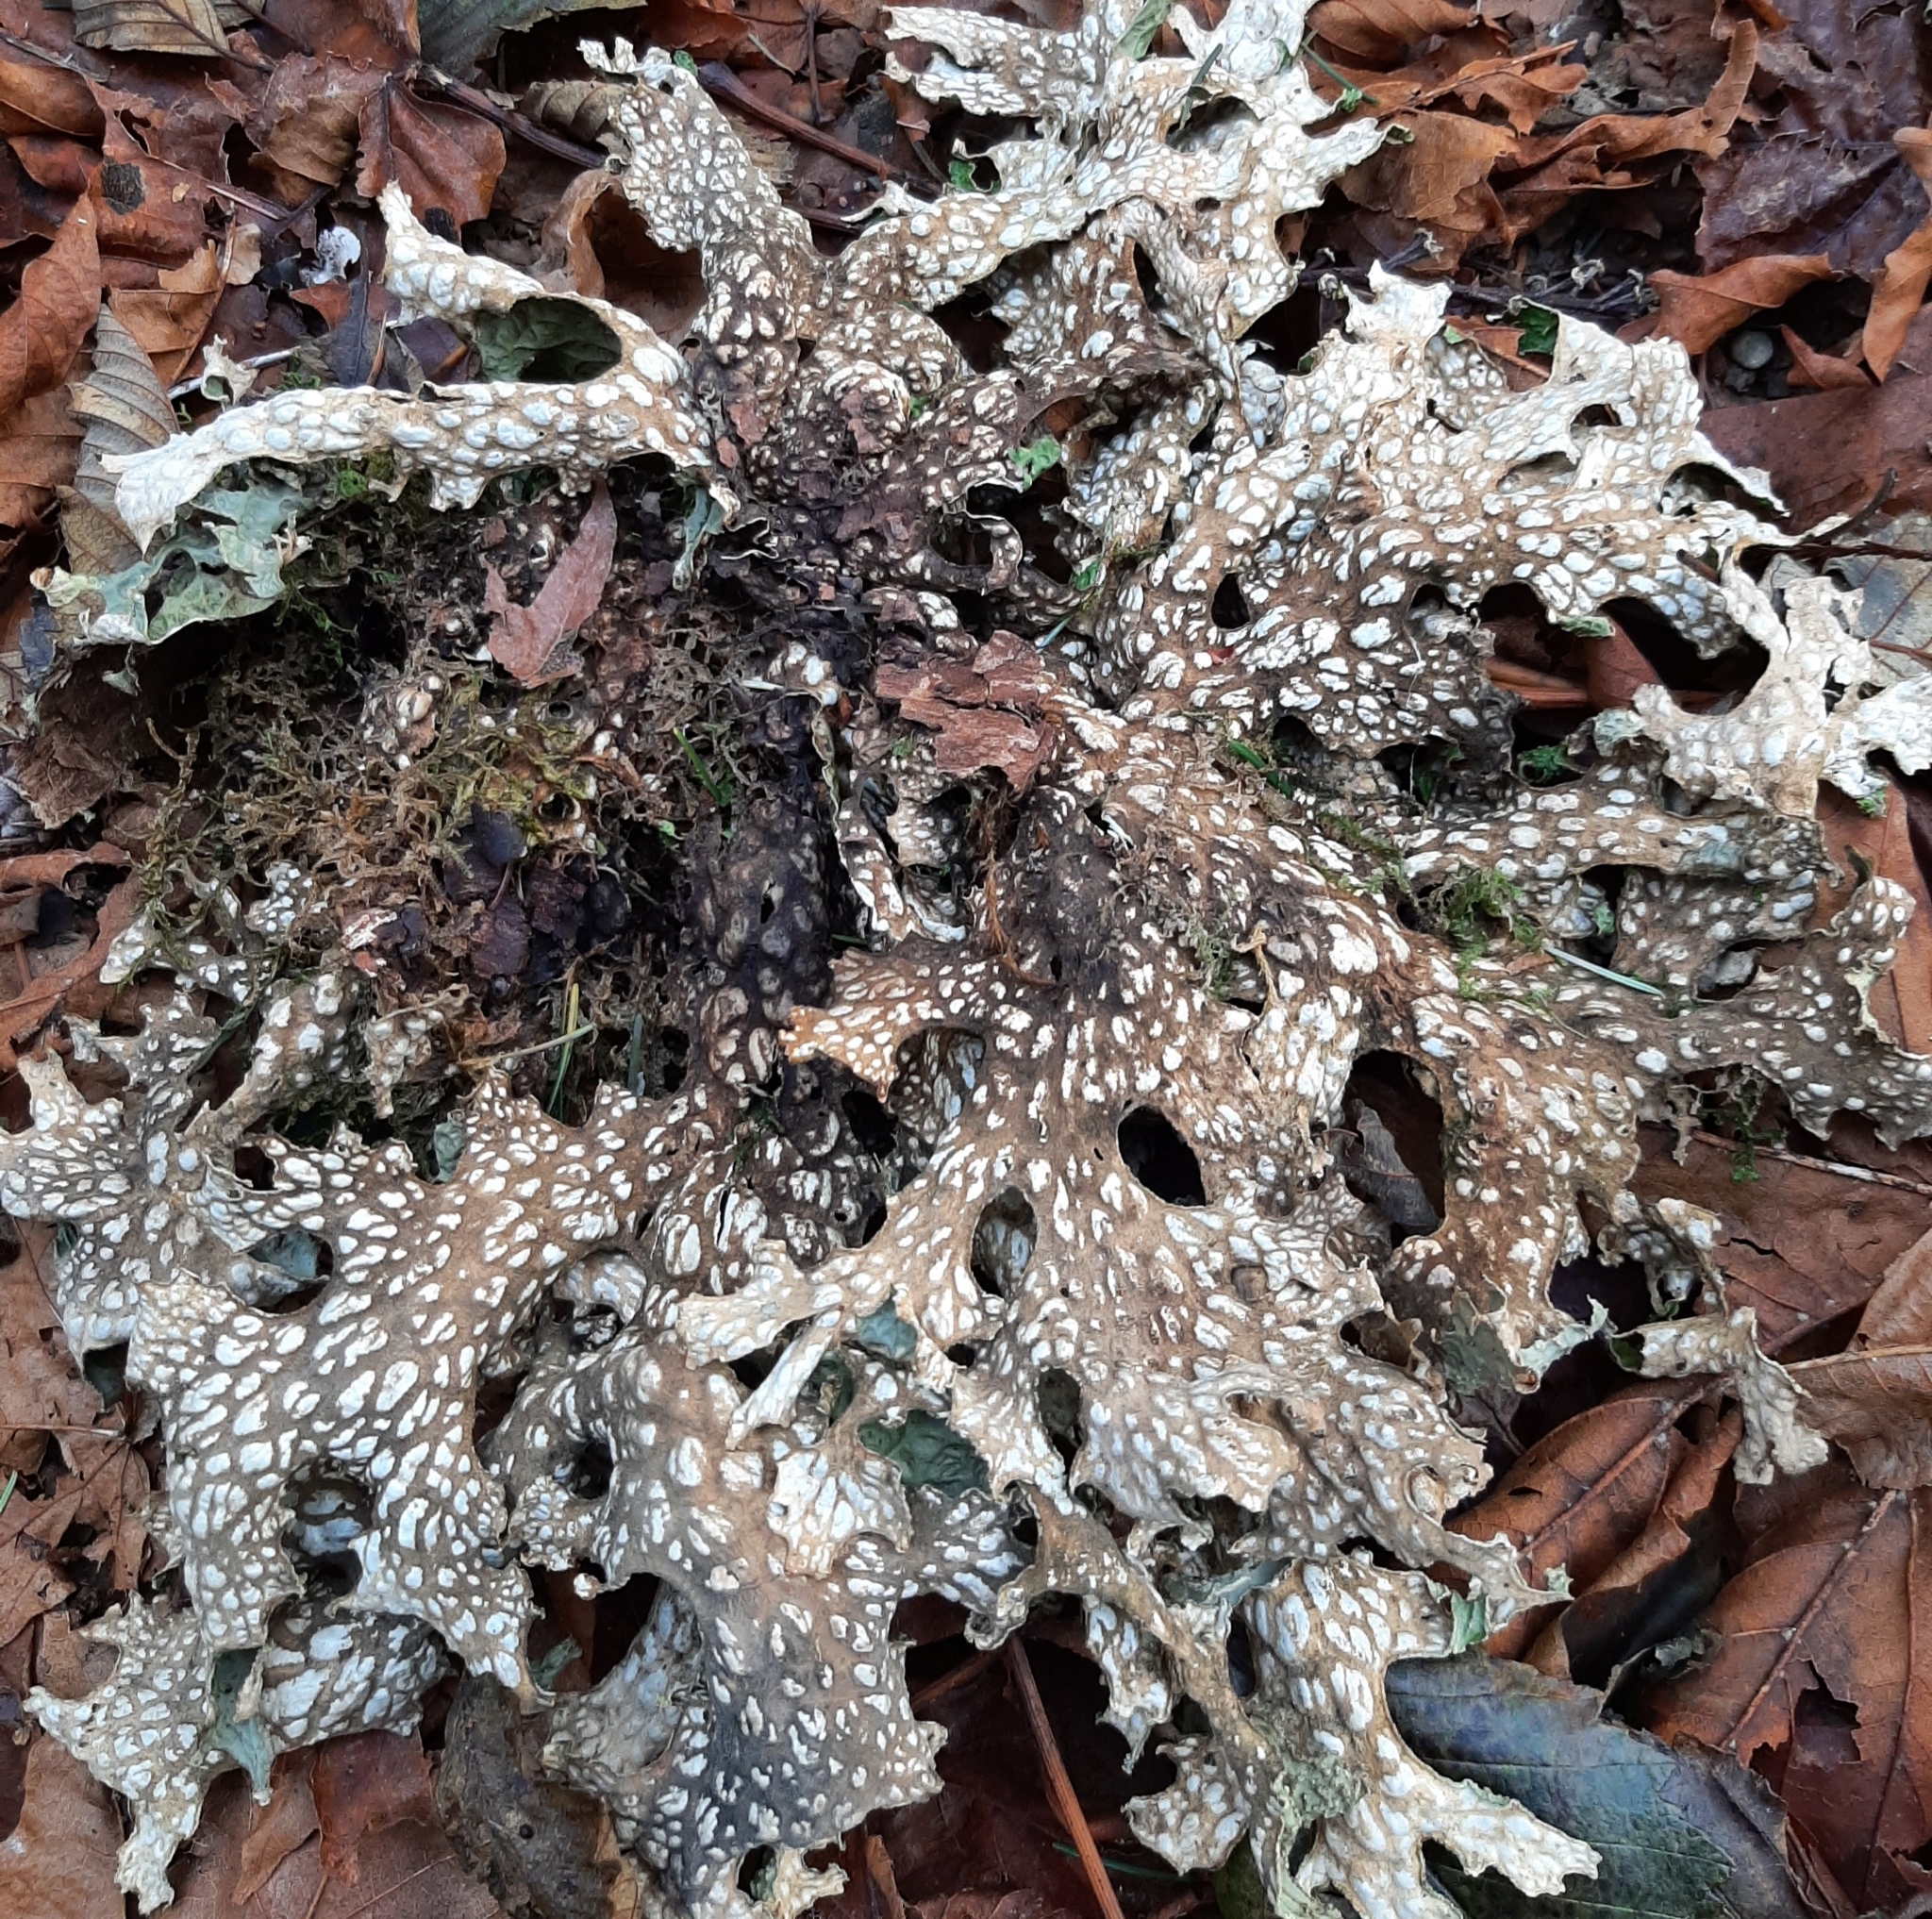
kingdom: Fungi
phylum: Ascomycota
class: Lecanoromycetes
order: Peltigerales
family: Lobariaceae
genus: Lobaria
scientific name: Lobaria pulmonaria
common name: Lungwort
